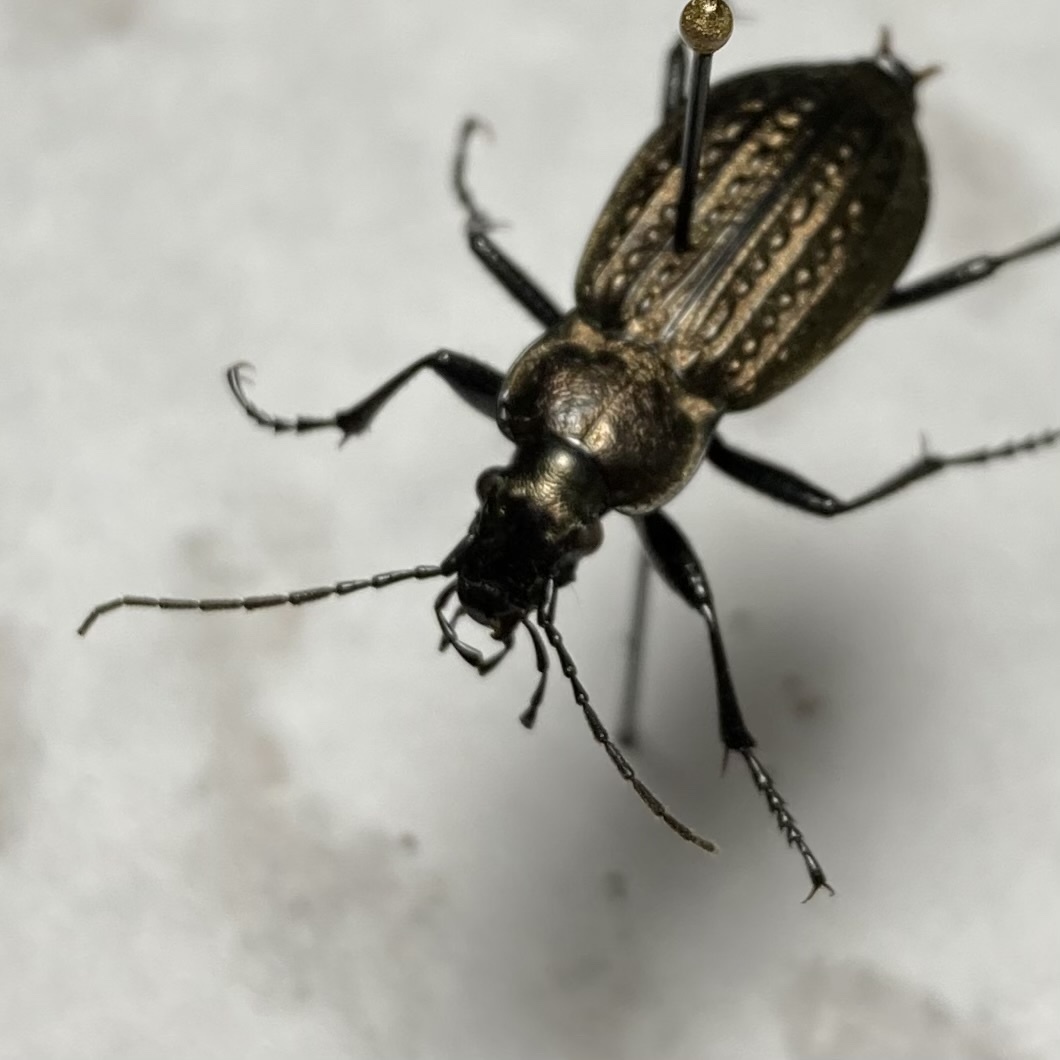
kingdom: Animalia
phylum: Arthropoda
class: Insecta
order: Coleoptera
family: Carabidae
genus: Carabus
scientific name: Carabus granulatus
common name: Granulate ground beetle
